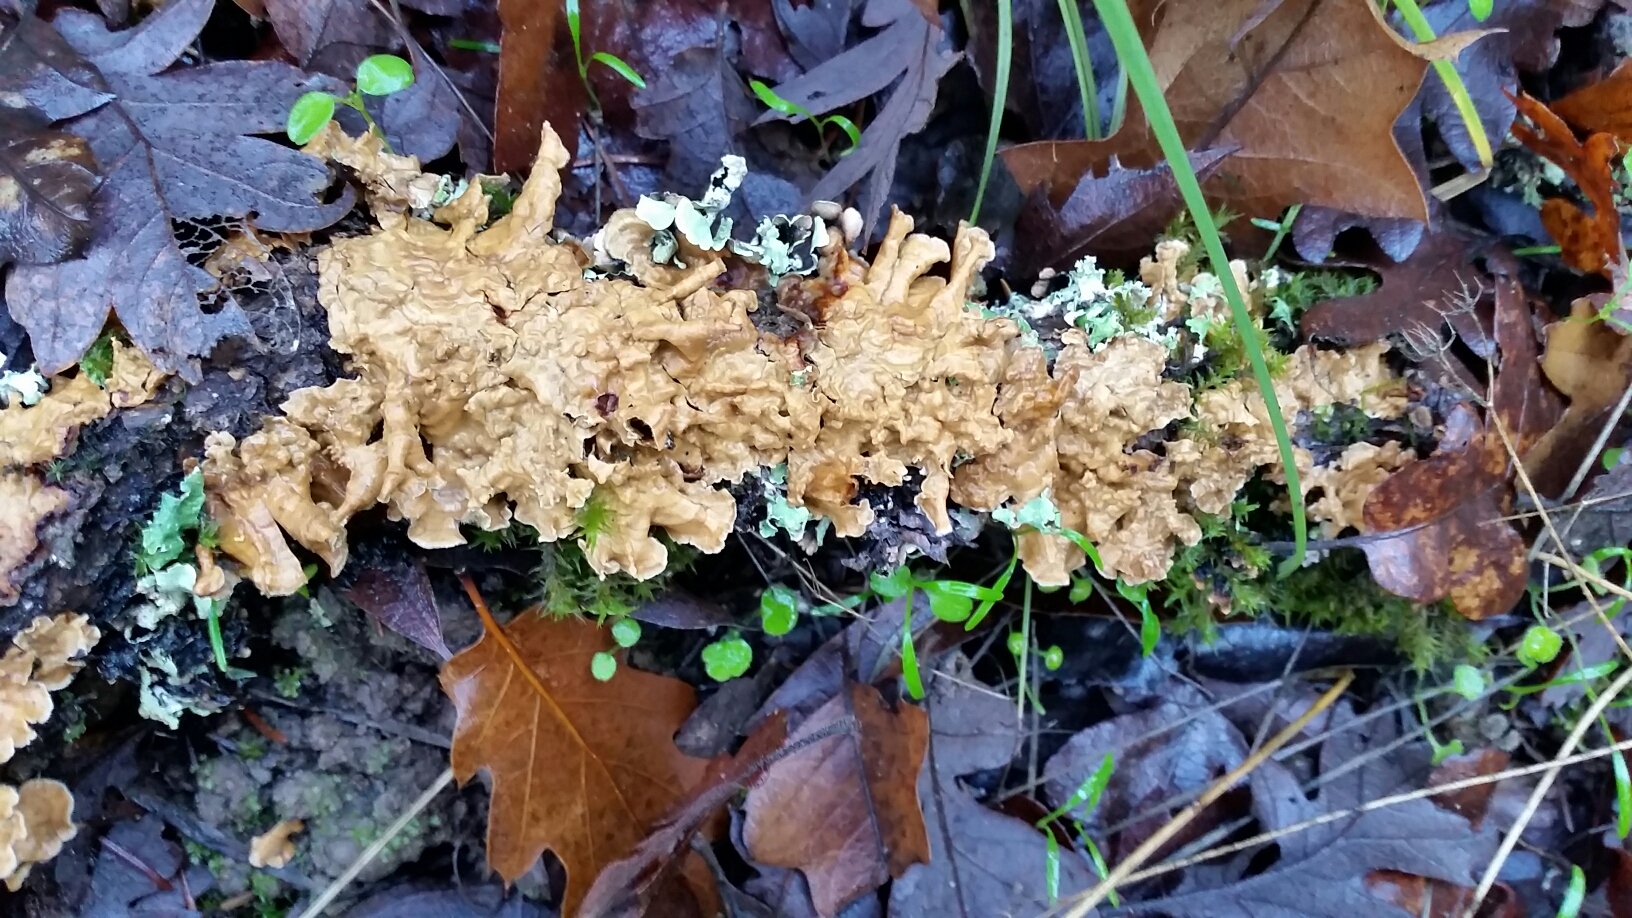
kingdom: Fungi
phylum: Basidiomycota
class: Agaricomycetes
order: Russulales
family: Stereaceae
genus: Stereum
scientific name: Stereum hirsutum
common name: Hairy curtain crust
